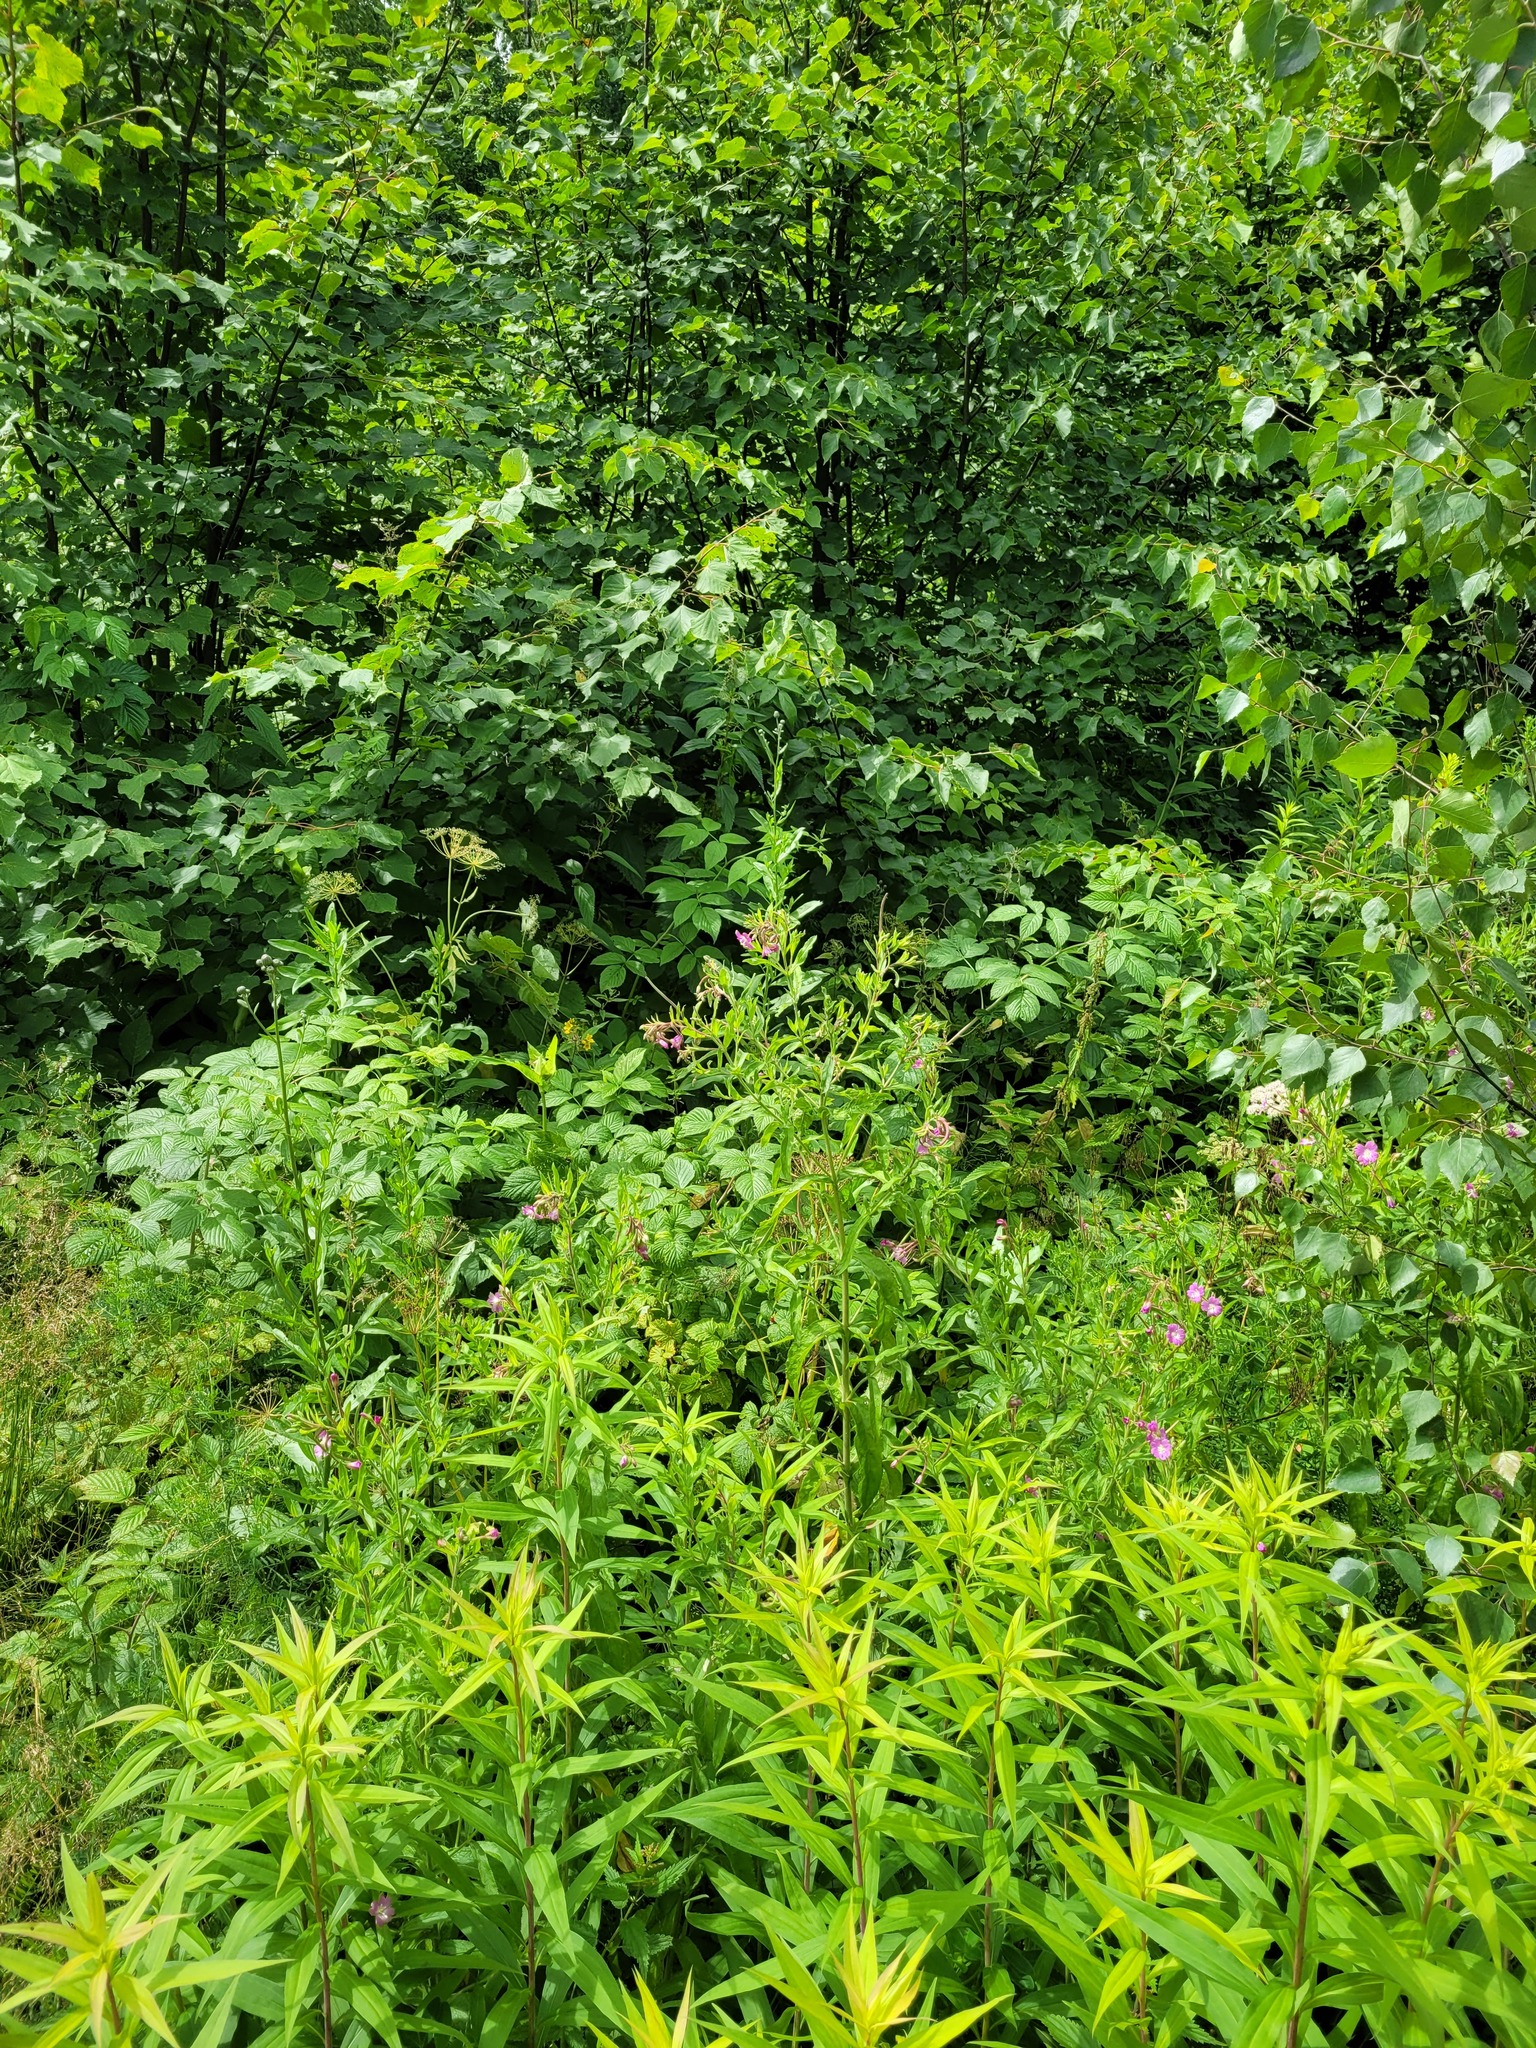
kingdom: Plantae
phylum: Tracheophyta
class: Magnoliopsida
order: Myrtales
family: Onagraceae
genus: Epilobium
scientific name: Epilobium hirsutum
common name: Great willowherb
